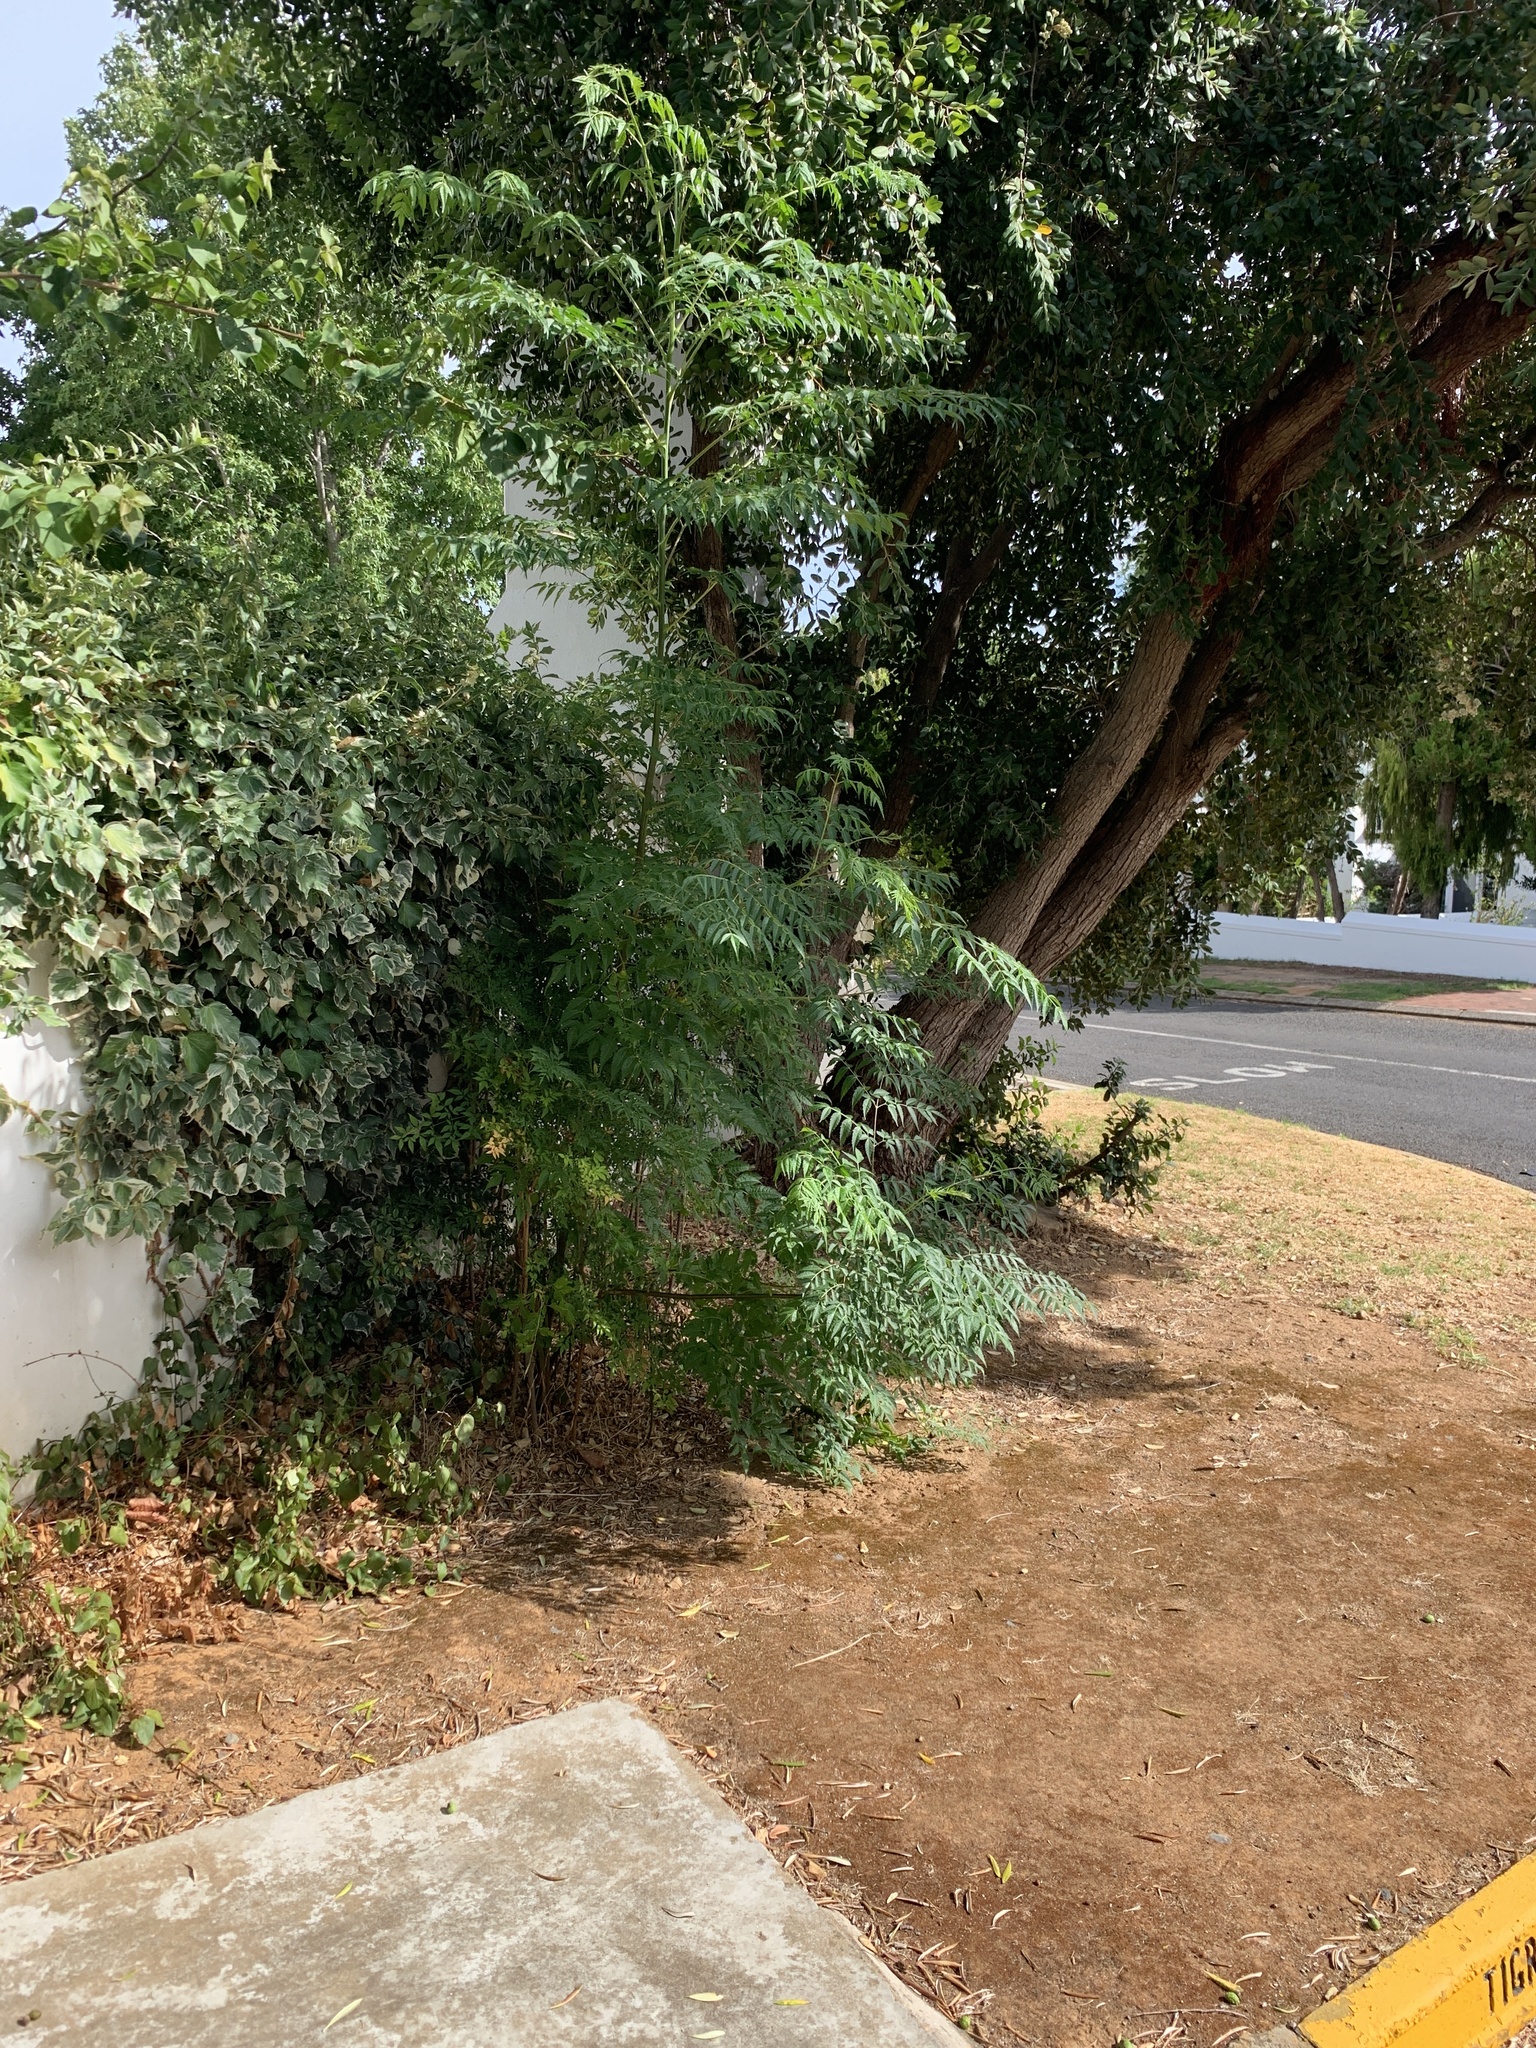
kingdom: Plantae
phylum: Tracheophyta
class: Magnoliopsida
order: Sapindales
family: Meliaceae
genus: Melia
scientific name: Melia azedarach
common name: Chinaberrytree
